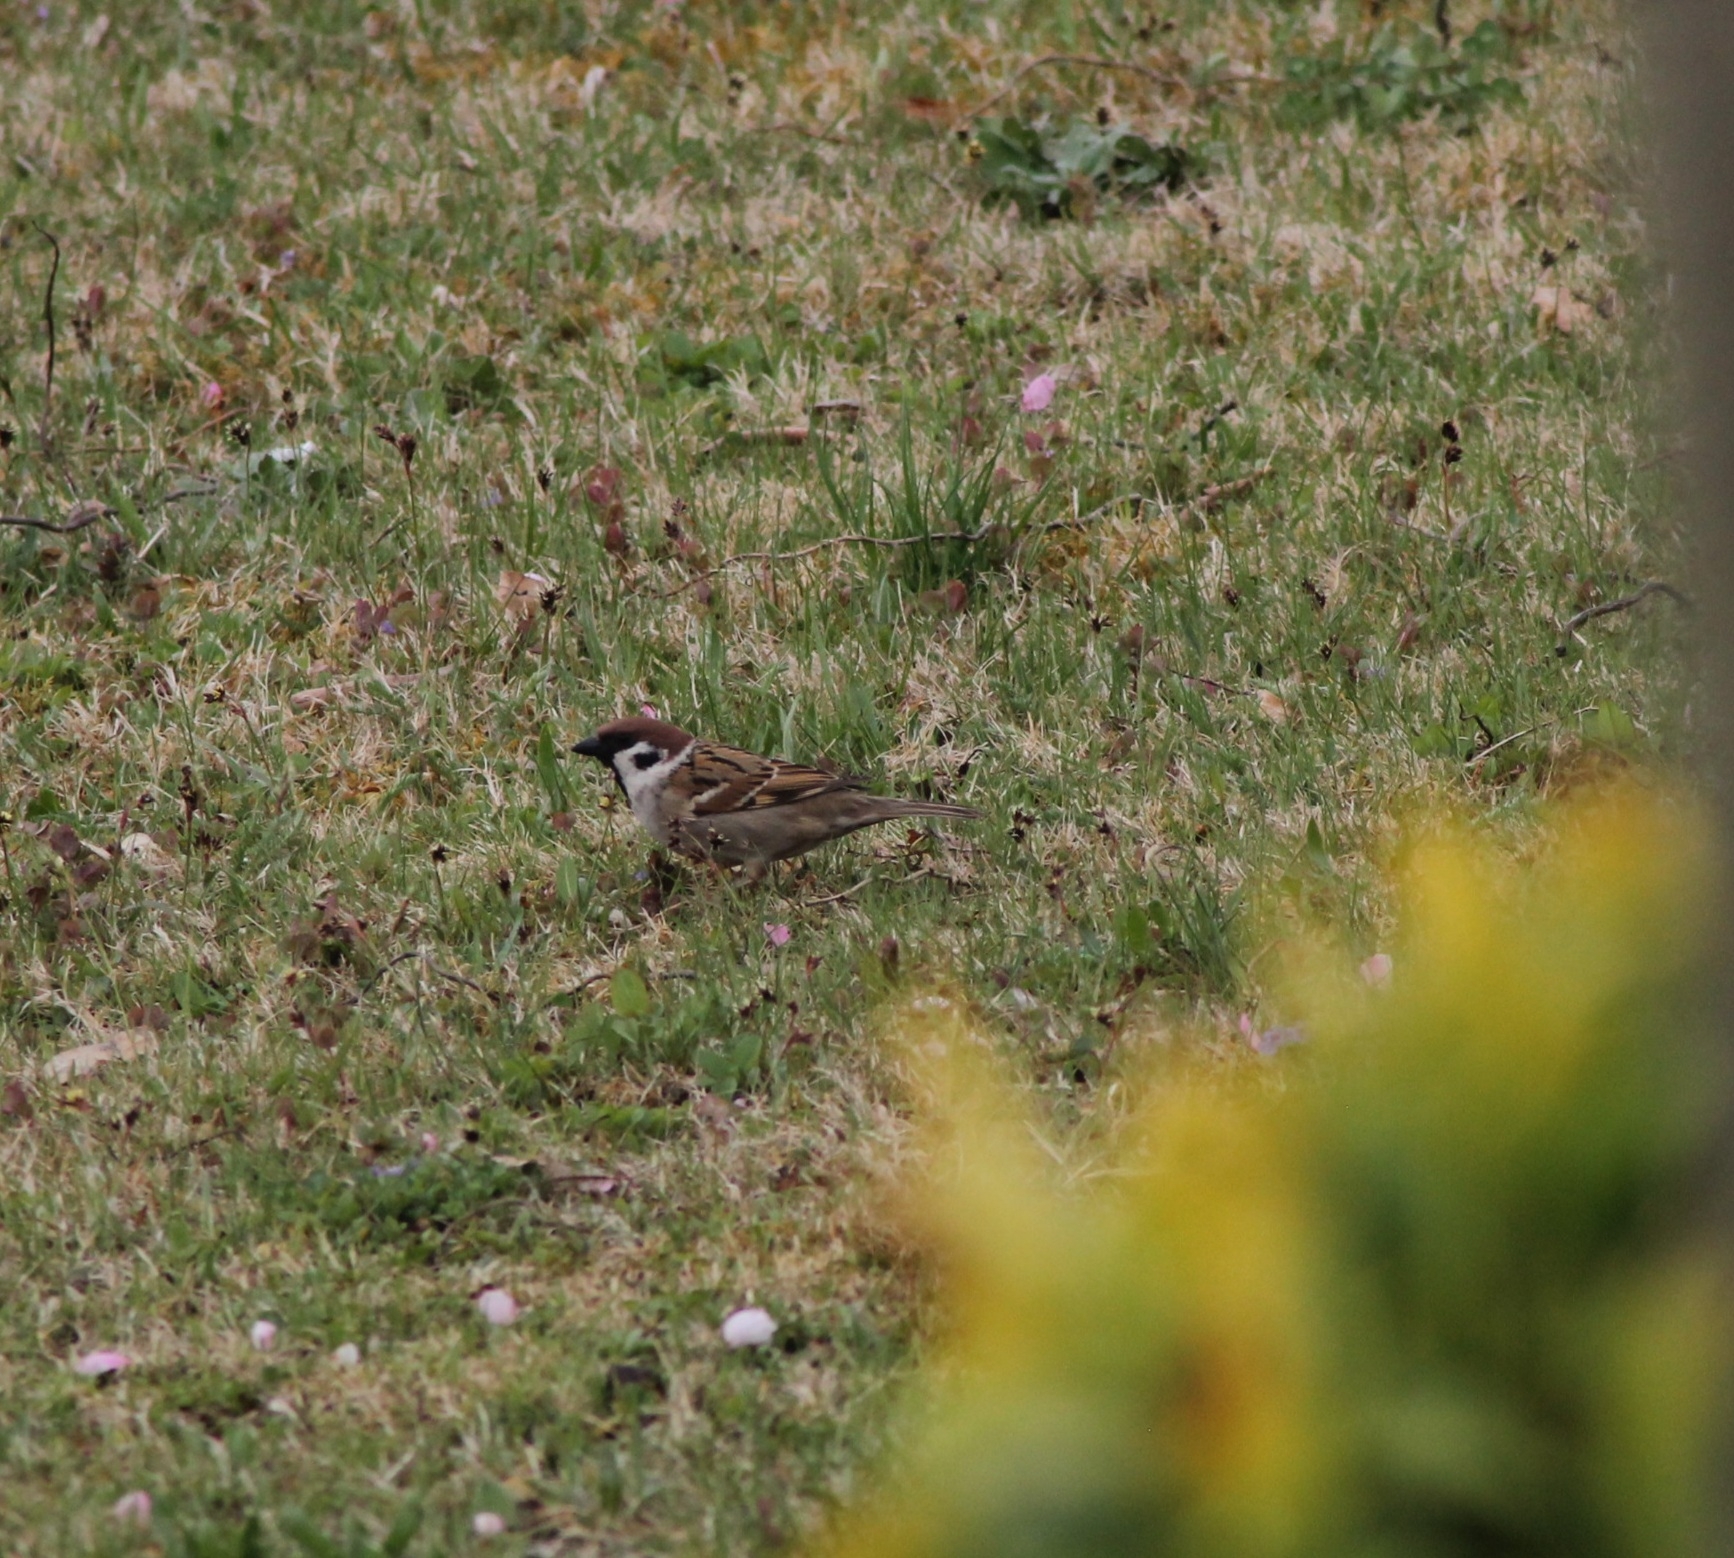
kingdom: Animalia
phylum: Chordata
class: Aves
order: Passeriformes
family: Passeridae
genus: Passer
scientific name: Passer montanus
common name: Eurasian tree sparrow
